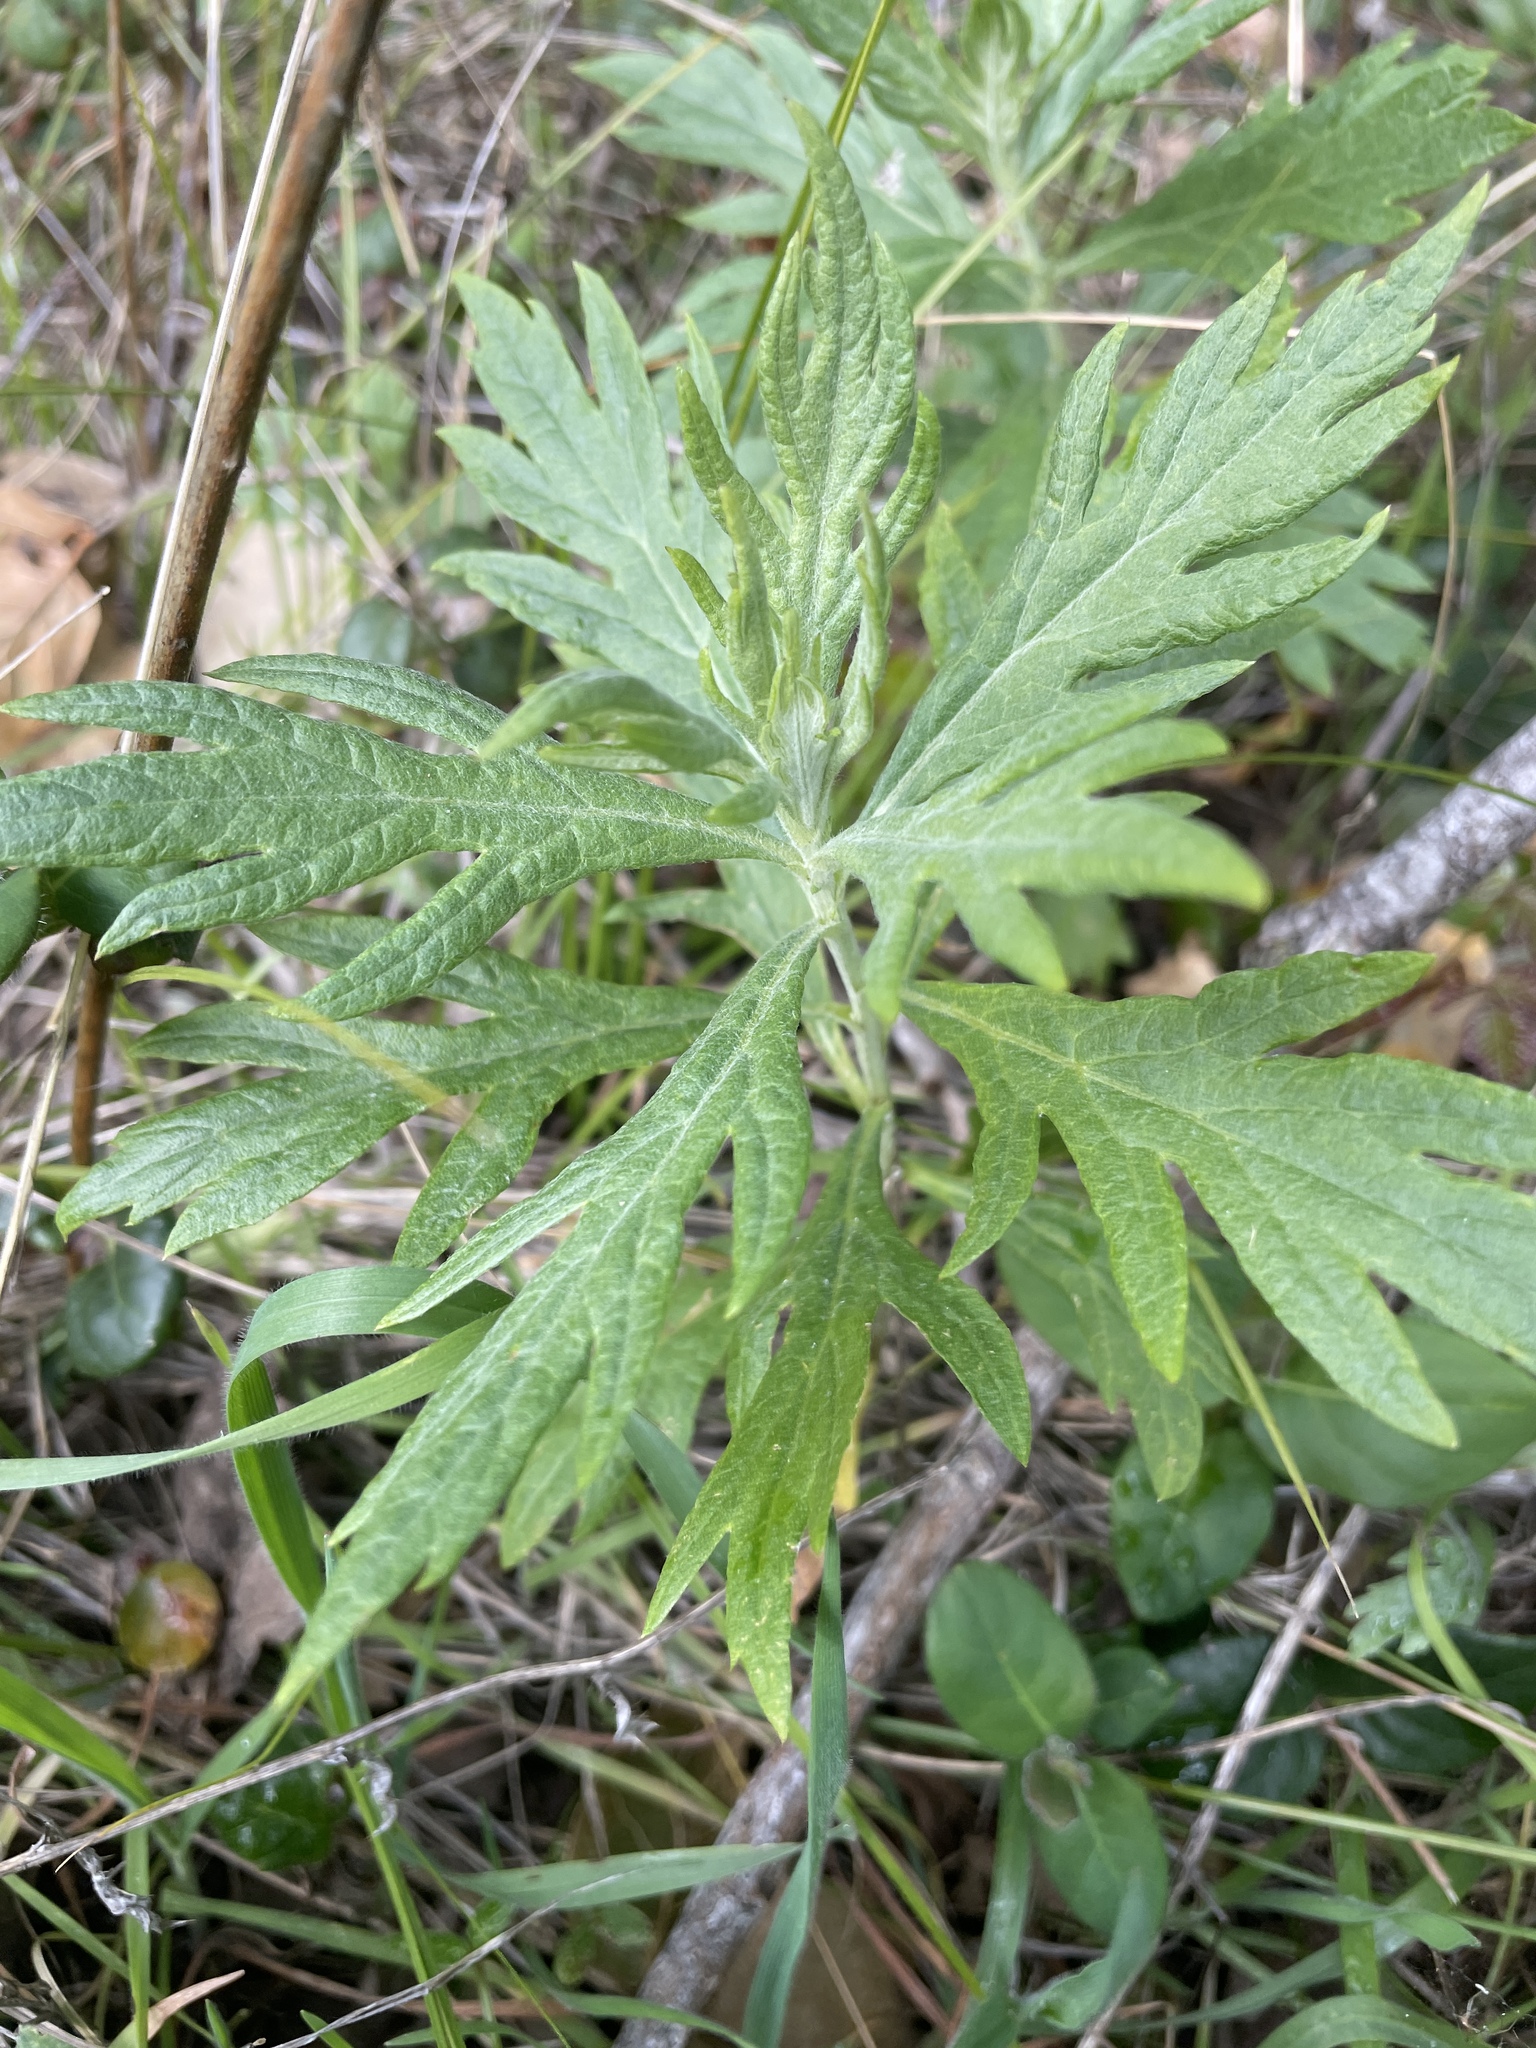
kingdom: Plantae
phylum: Tracheophyta
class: Magnoliopsida
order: Asterales
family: Asteraceae
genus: Artemisia
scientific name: Artemisia douglasiana
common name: Northwest mugwort
